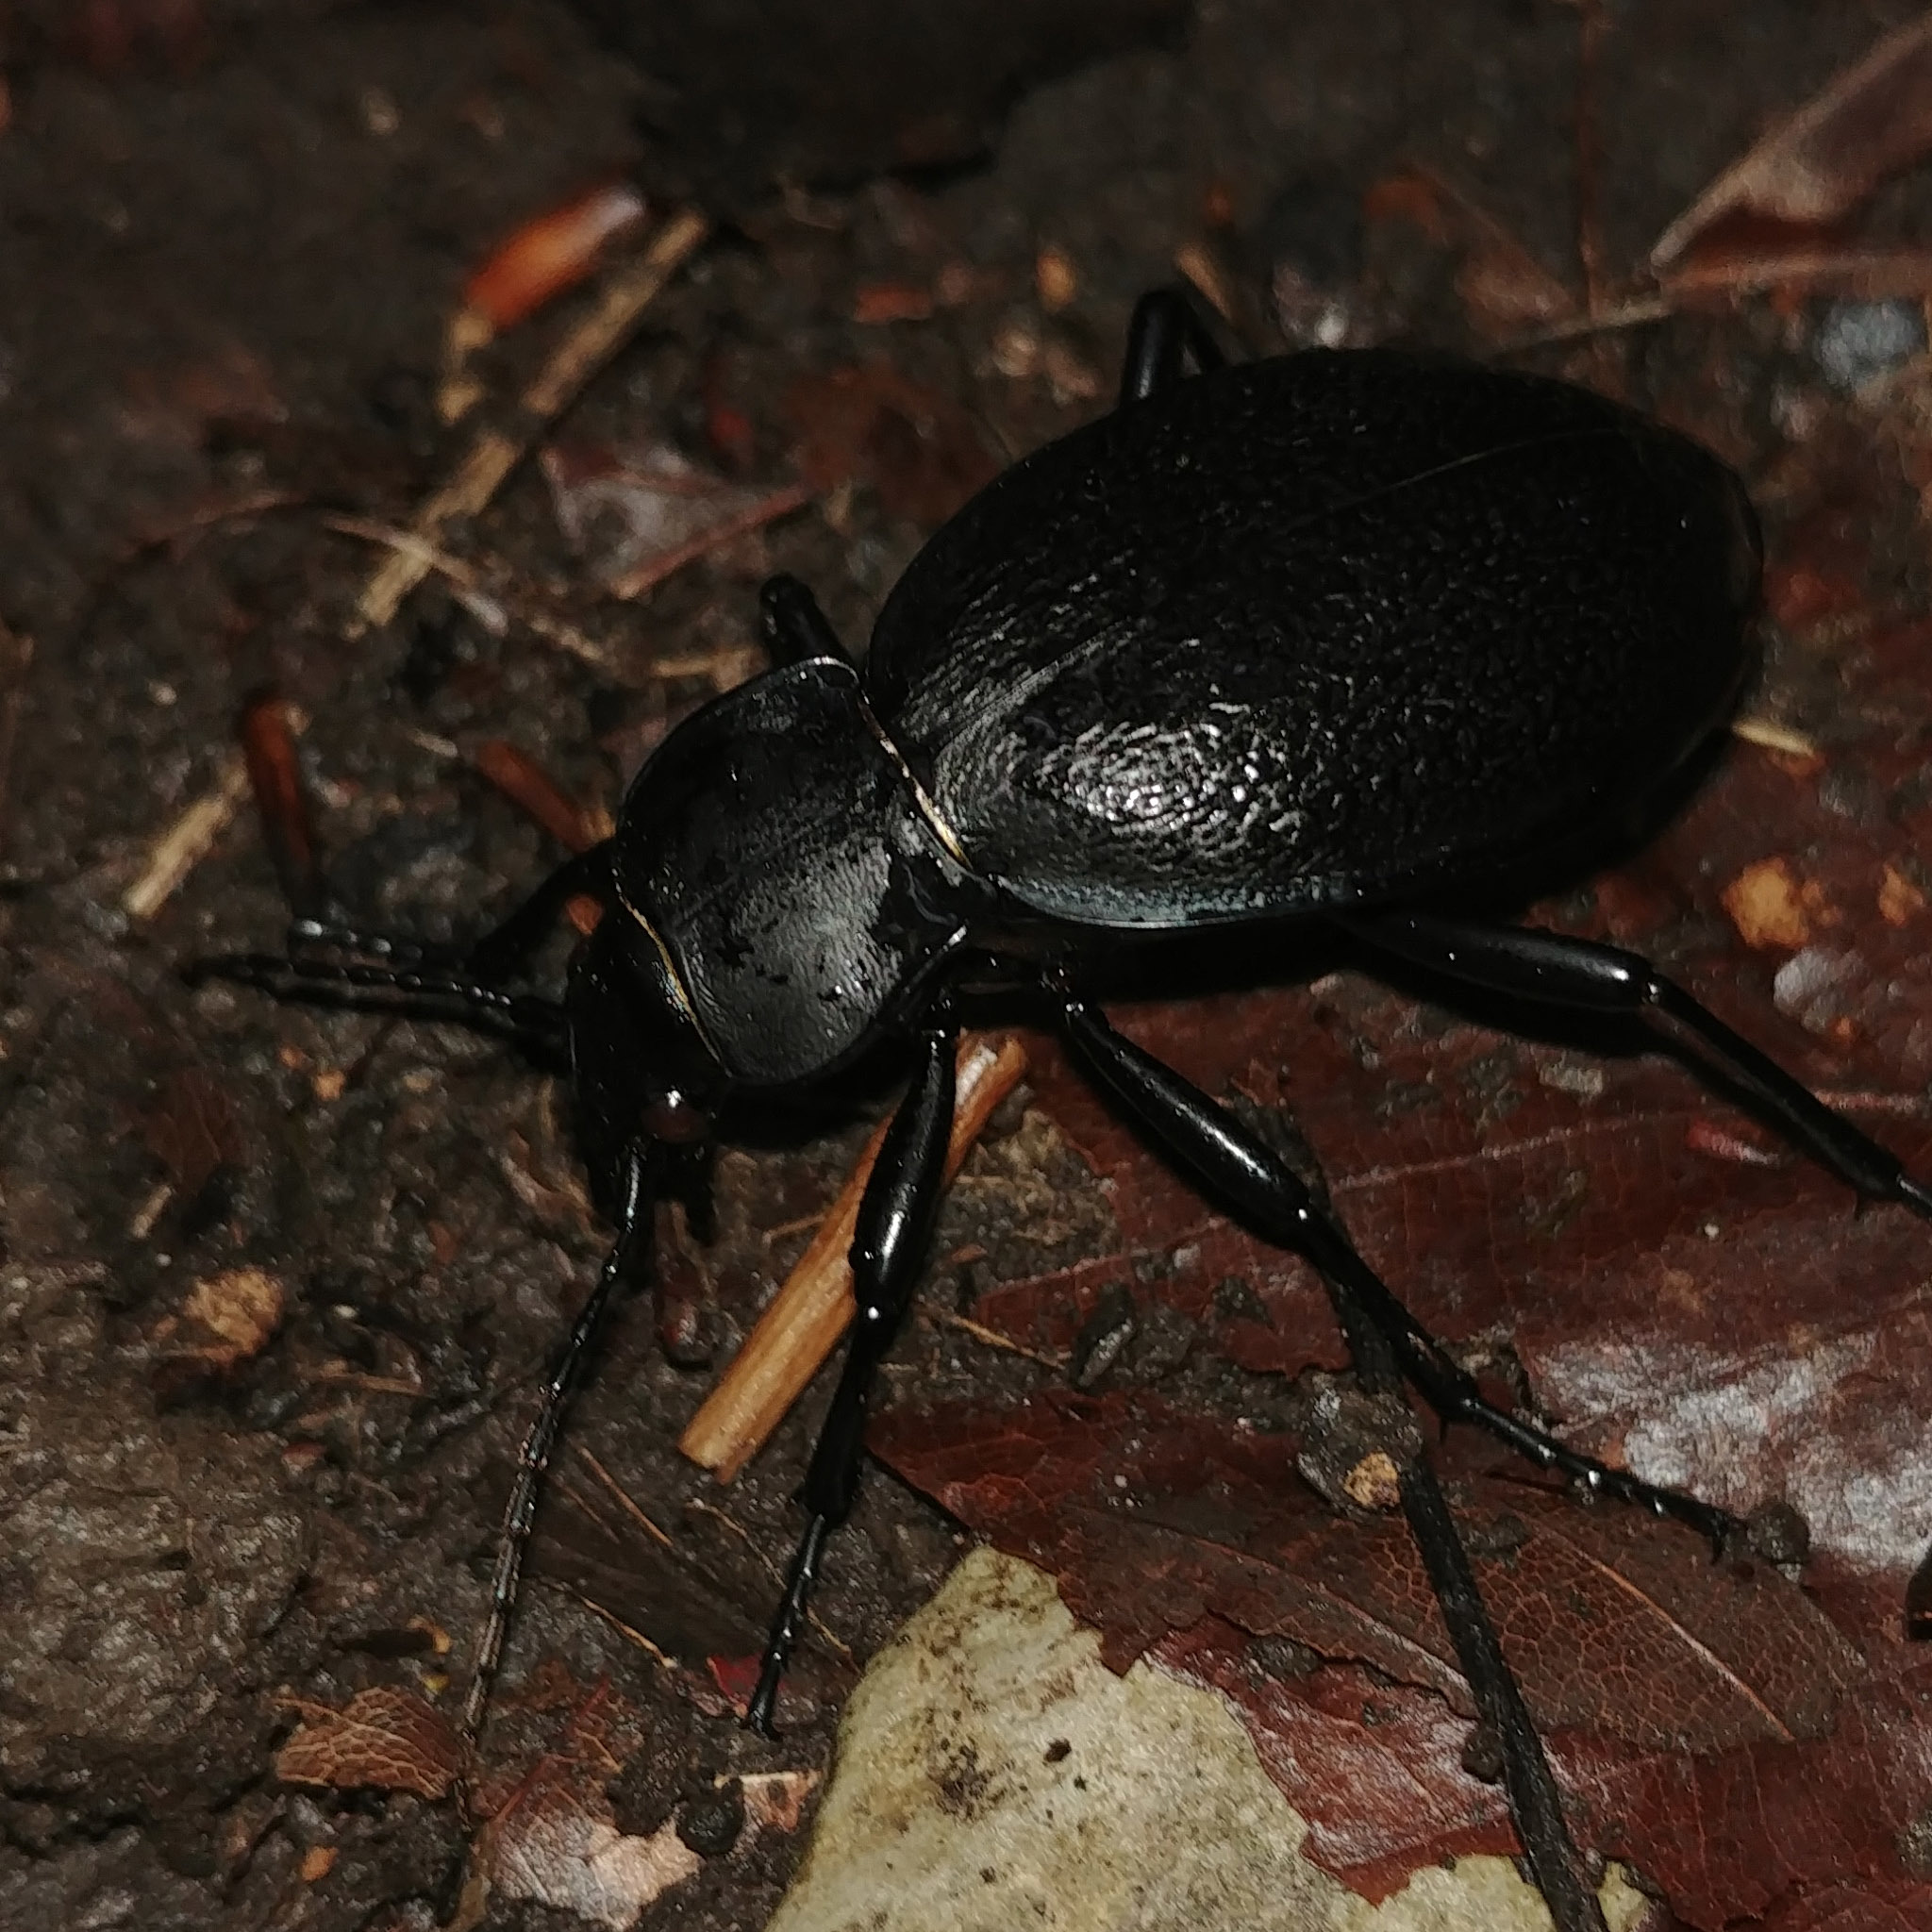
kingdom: Animalia
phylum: Arthropoda
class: Insecta
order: Coleoptera
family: Carabidae
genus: Carabus
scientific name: Carabus coriaceus
